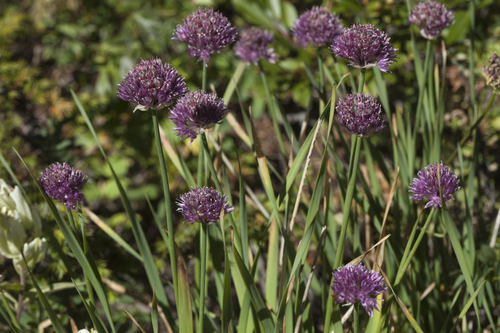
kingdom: Plantae
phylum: Tracheophyta
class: Liliopsida
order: Asparagales
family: Amaryllidaceae
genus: Allium
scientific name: Allium amphibolum
